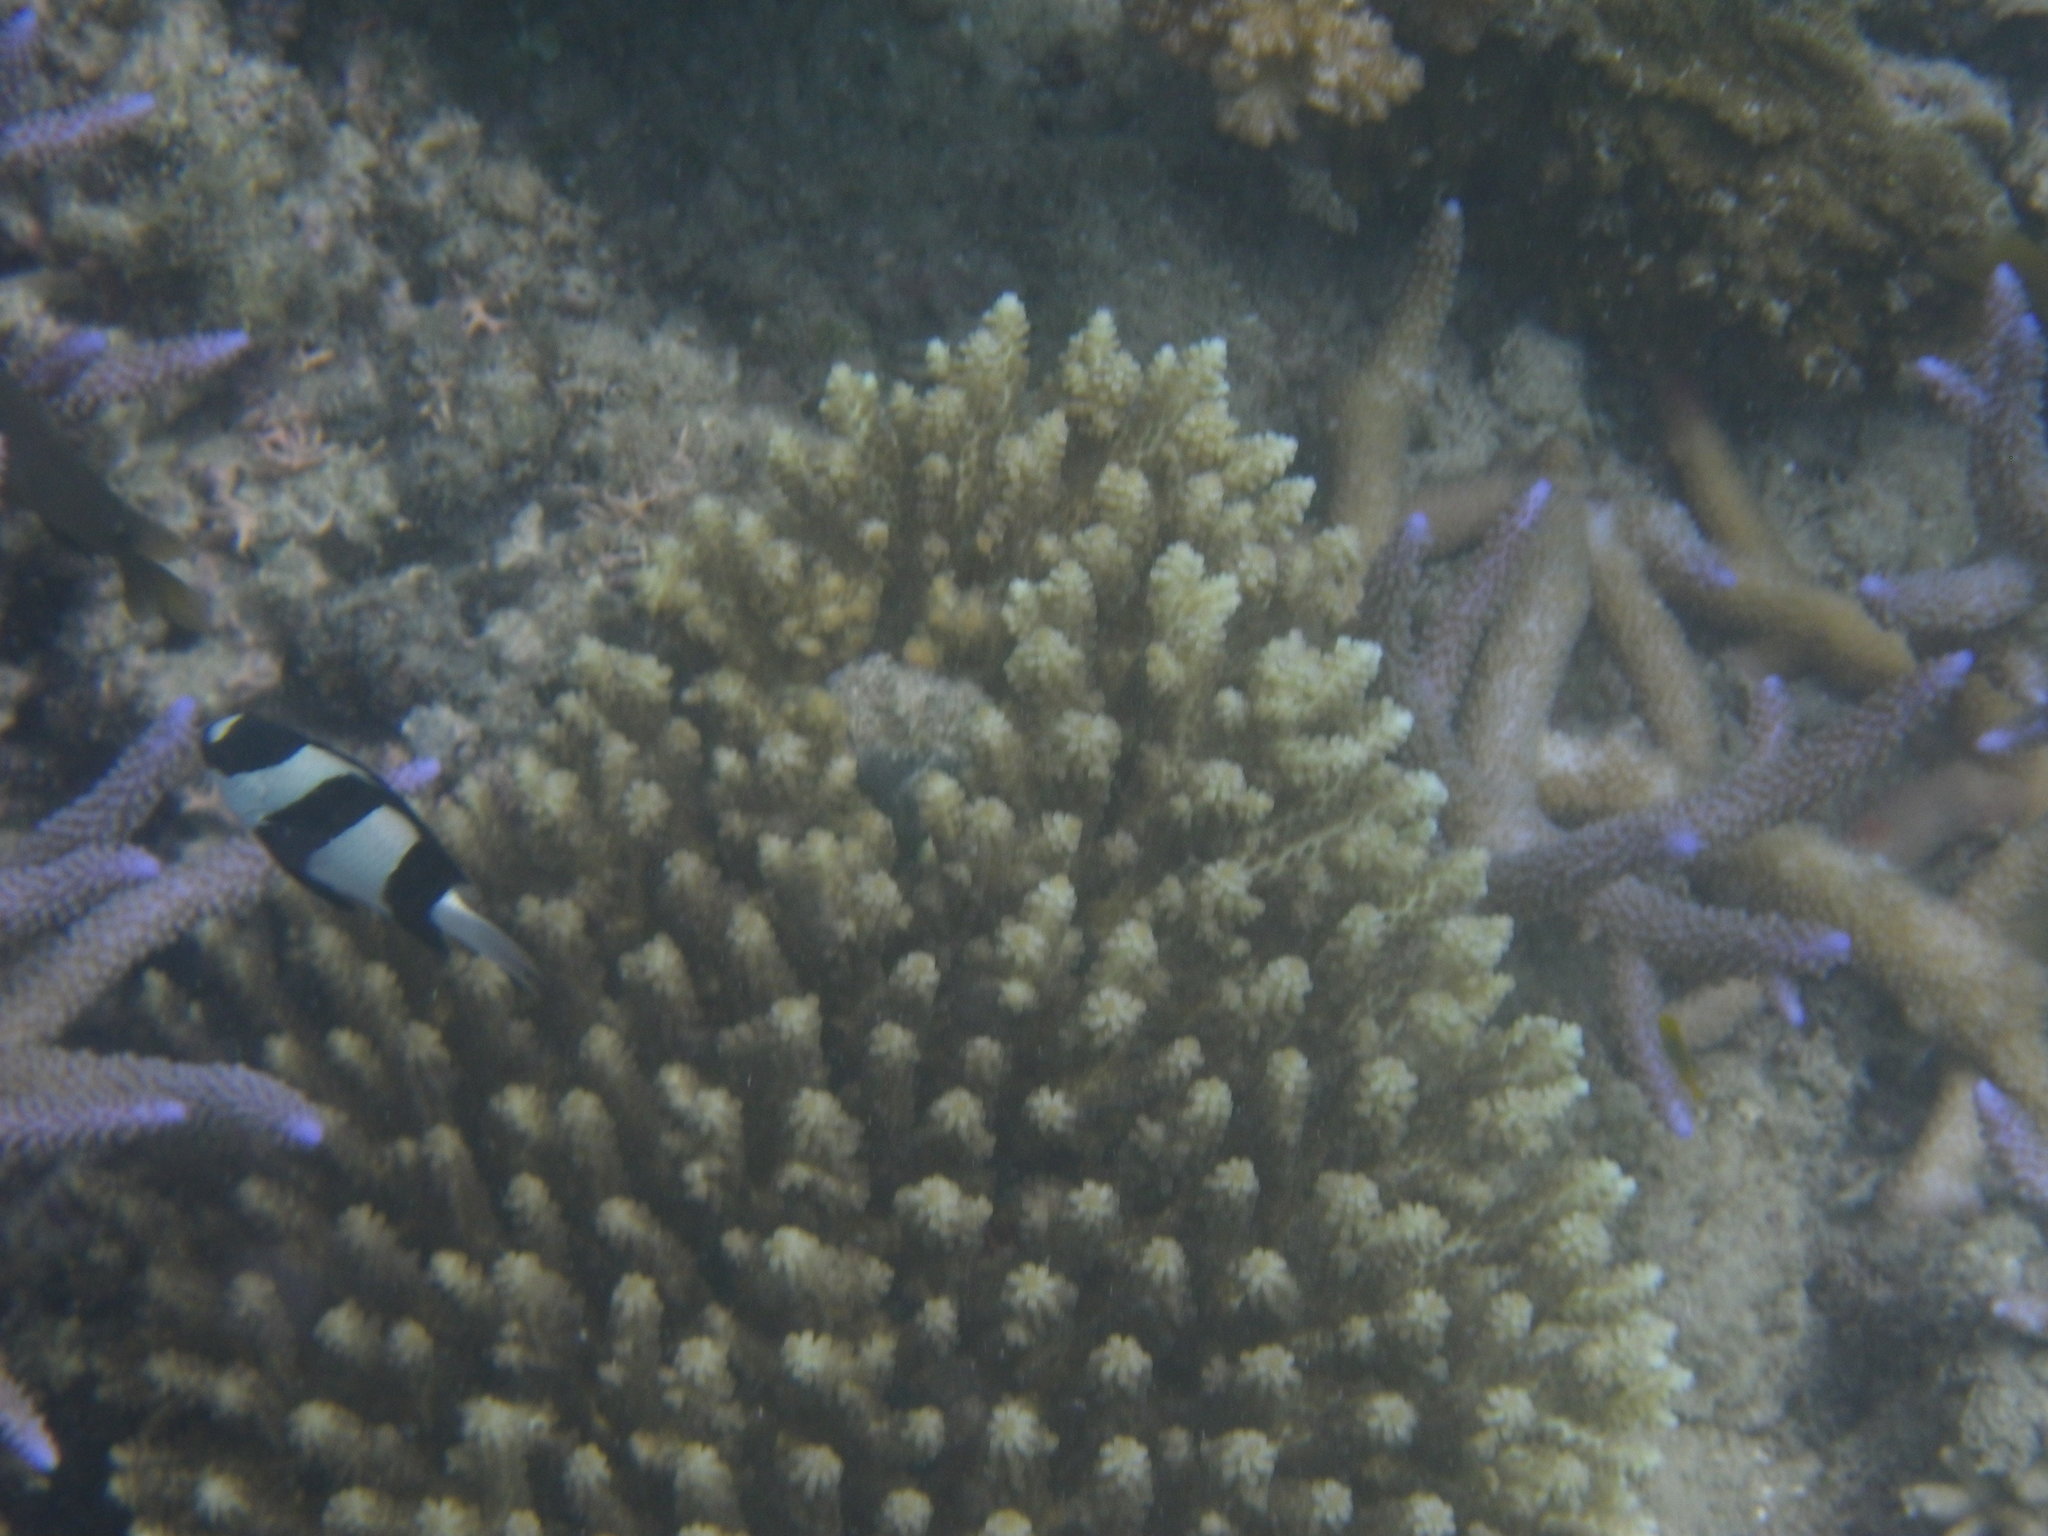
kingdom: Animalia
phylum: Chordata
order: Perciformes
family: Pomacentridae
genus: Dascyllus
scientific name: Dascyllus aruanus
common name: Humbug dascyllus
